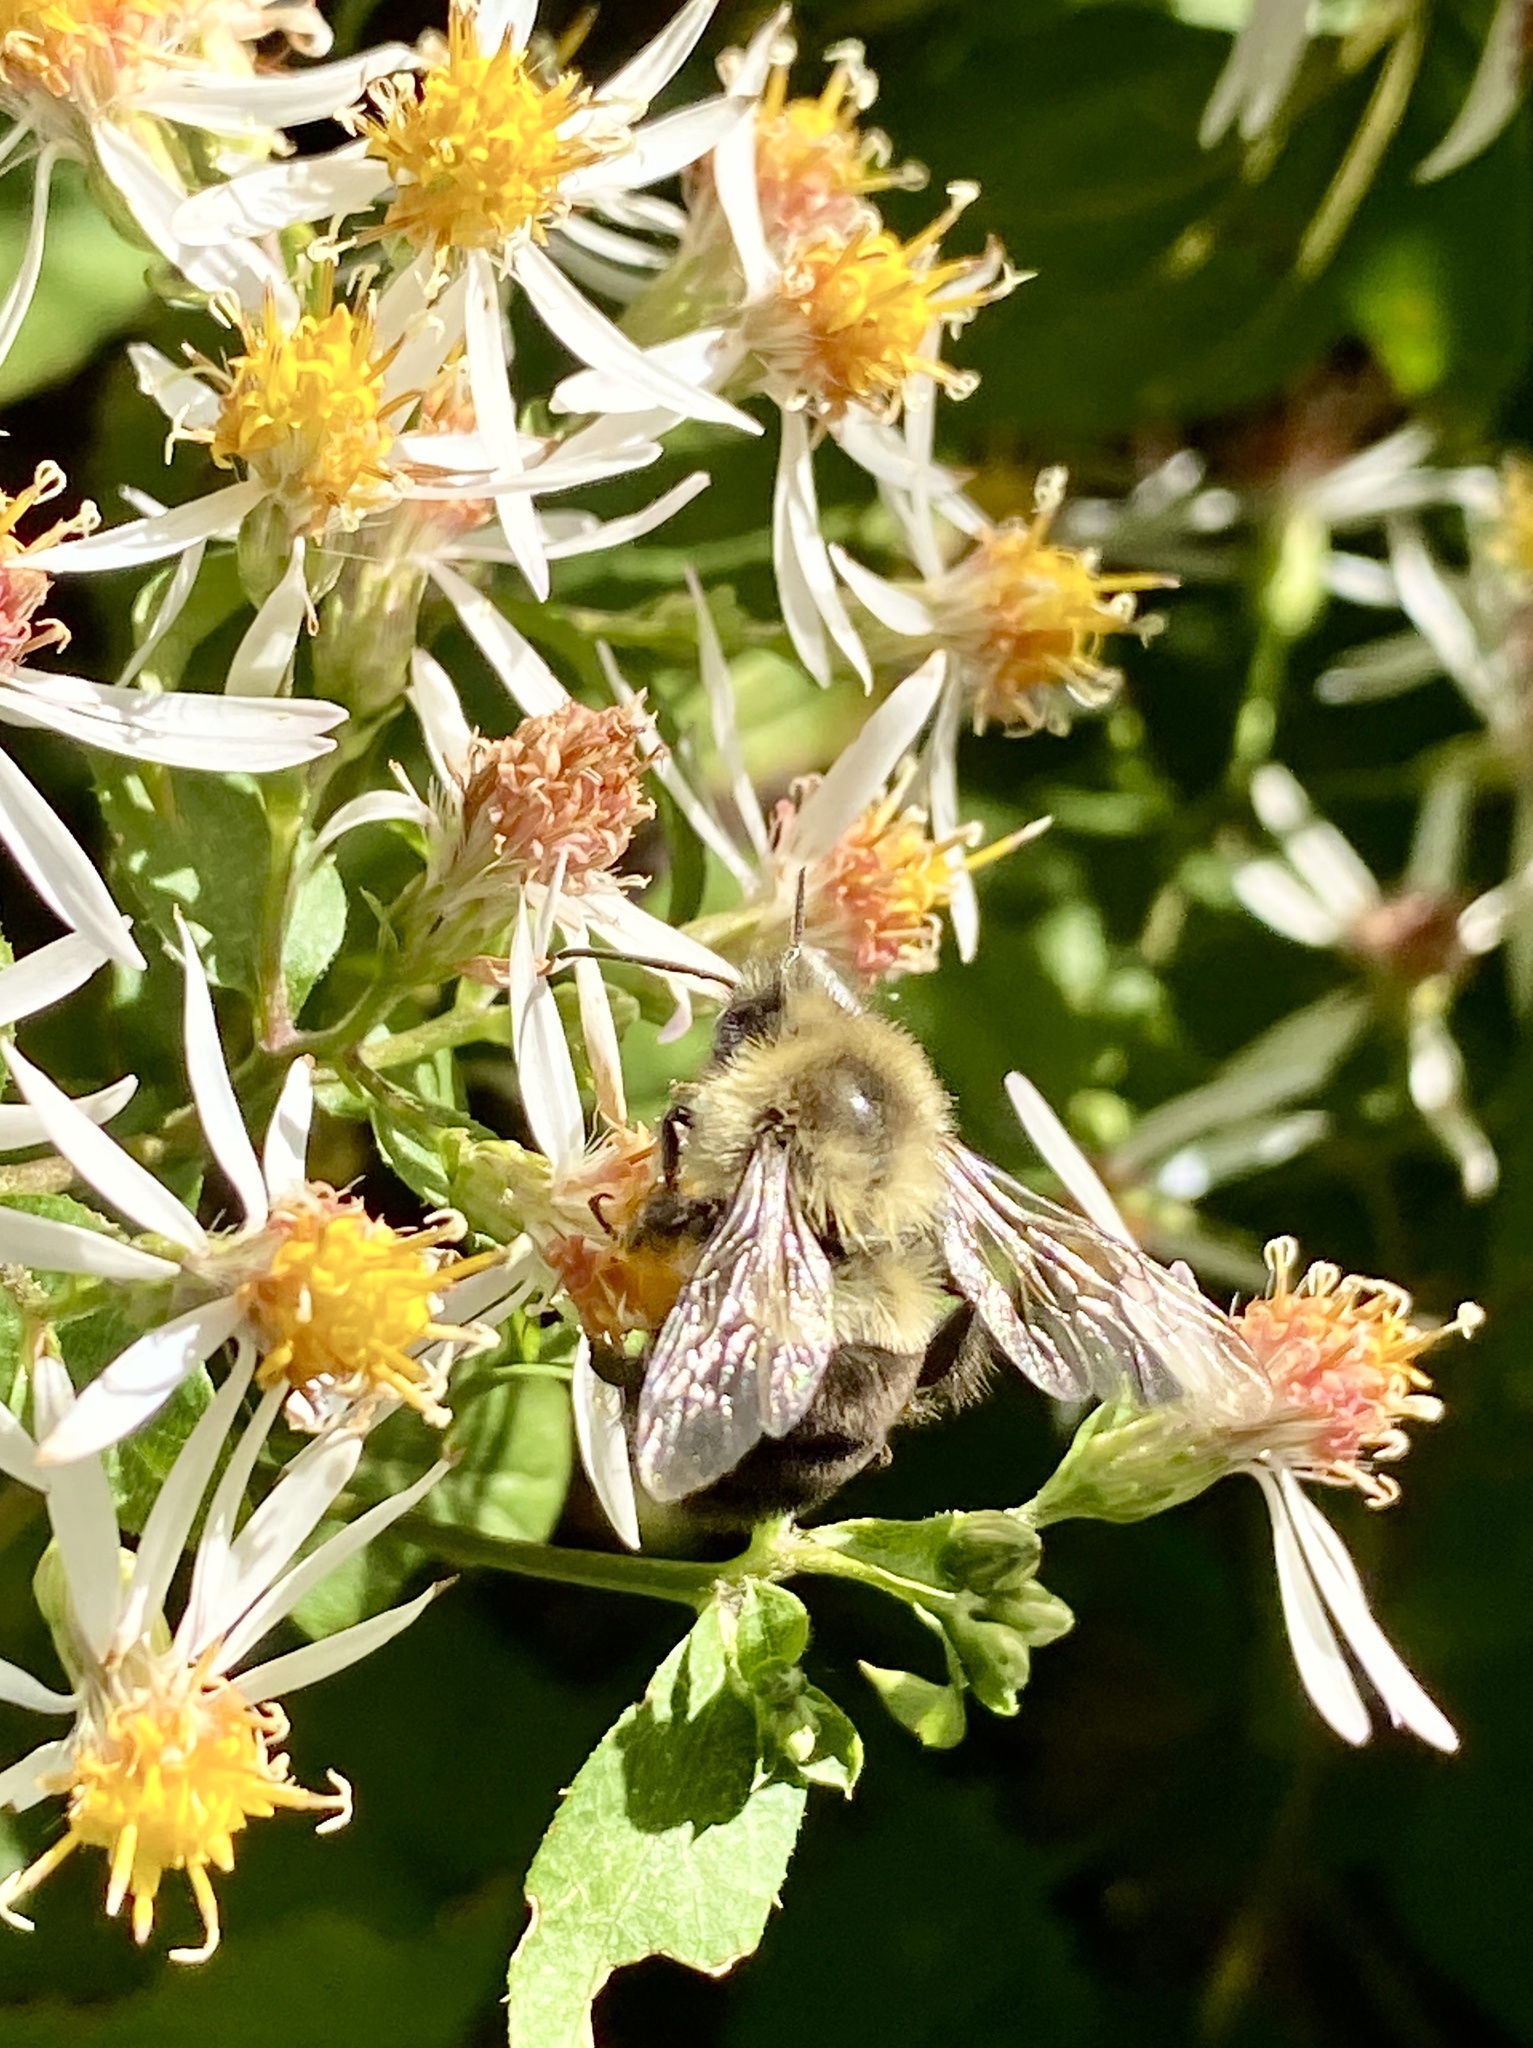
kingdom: Animalia
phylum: Arthropoda
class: Insecta
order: Hymenoptera
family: Apidae
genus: Bombus
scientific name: Bombus impatiens
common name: Common eastern bumble bee
